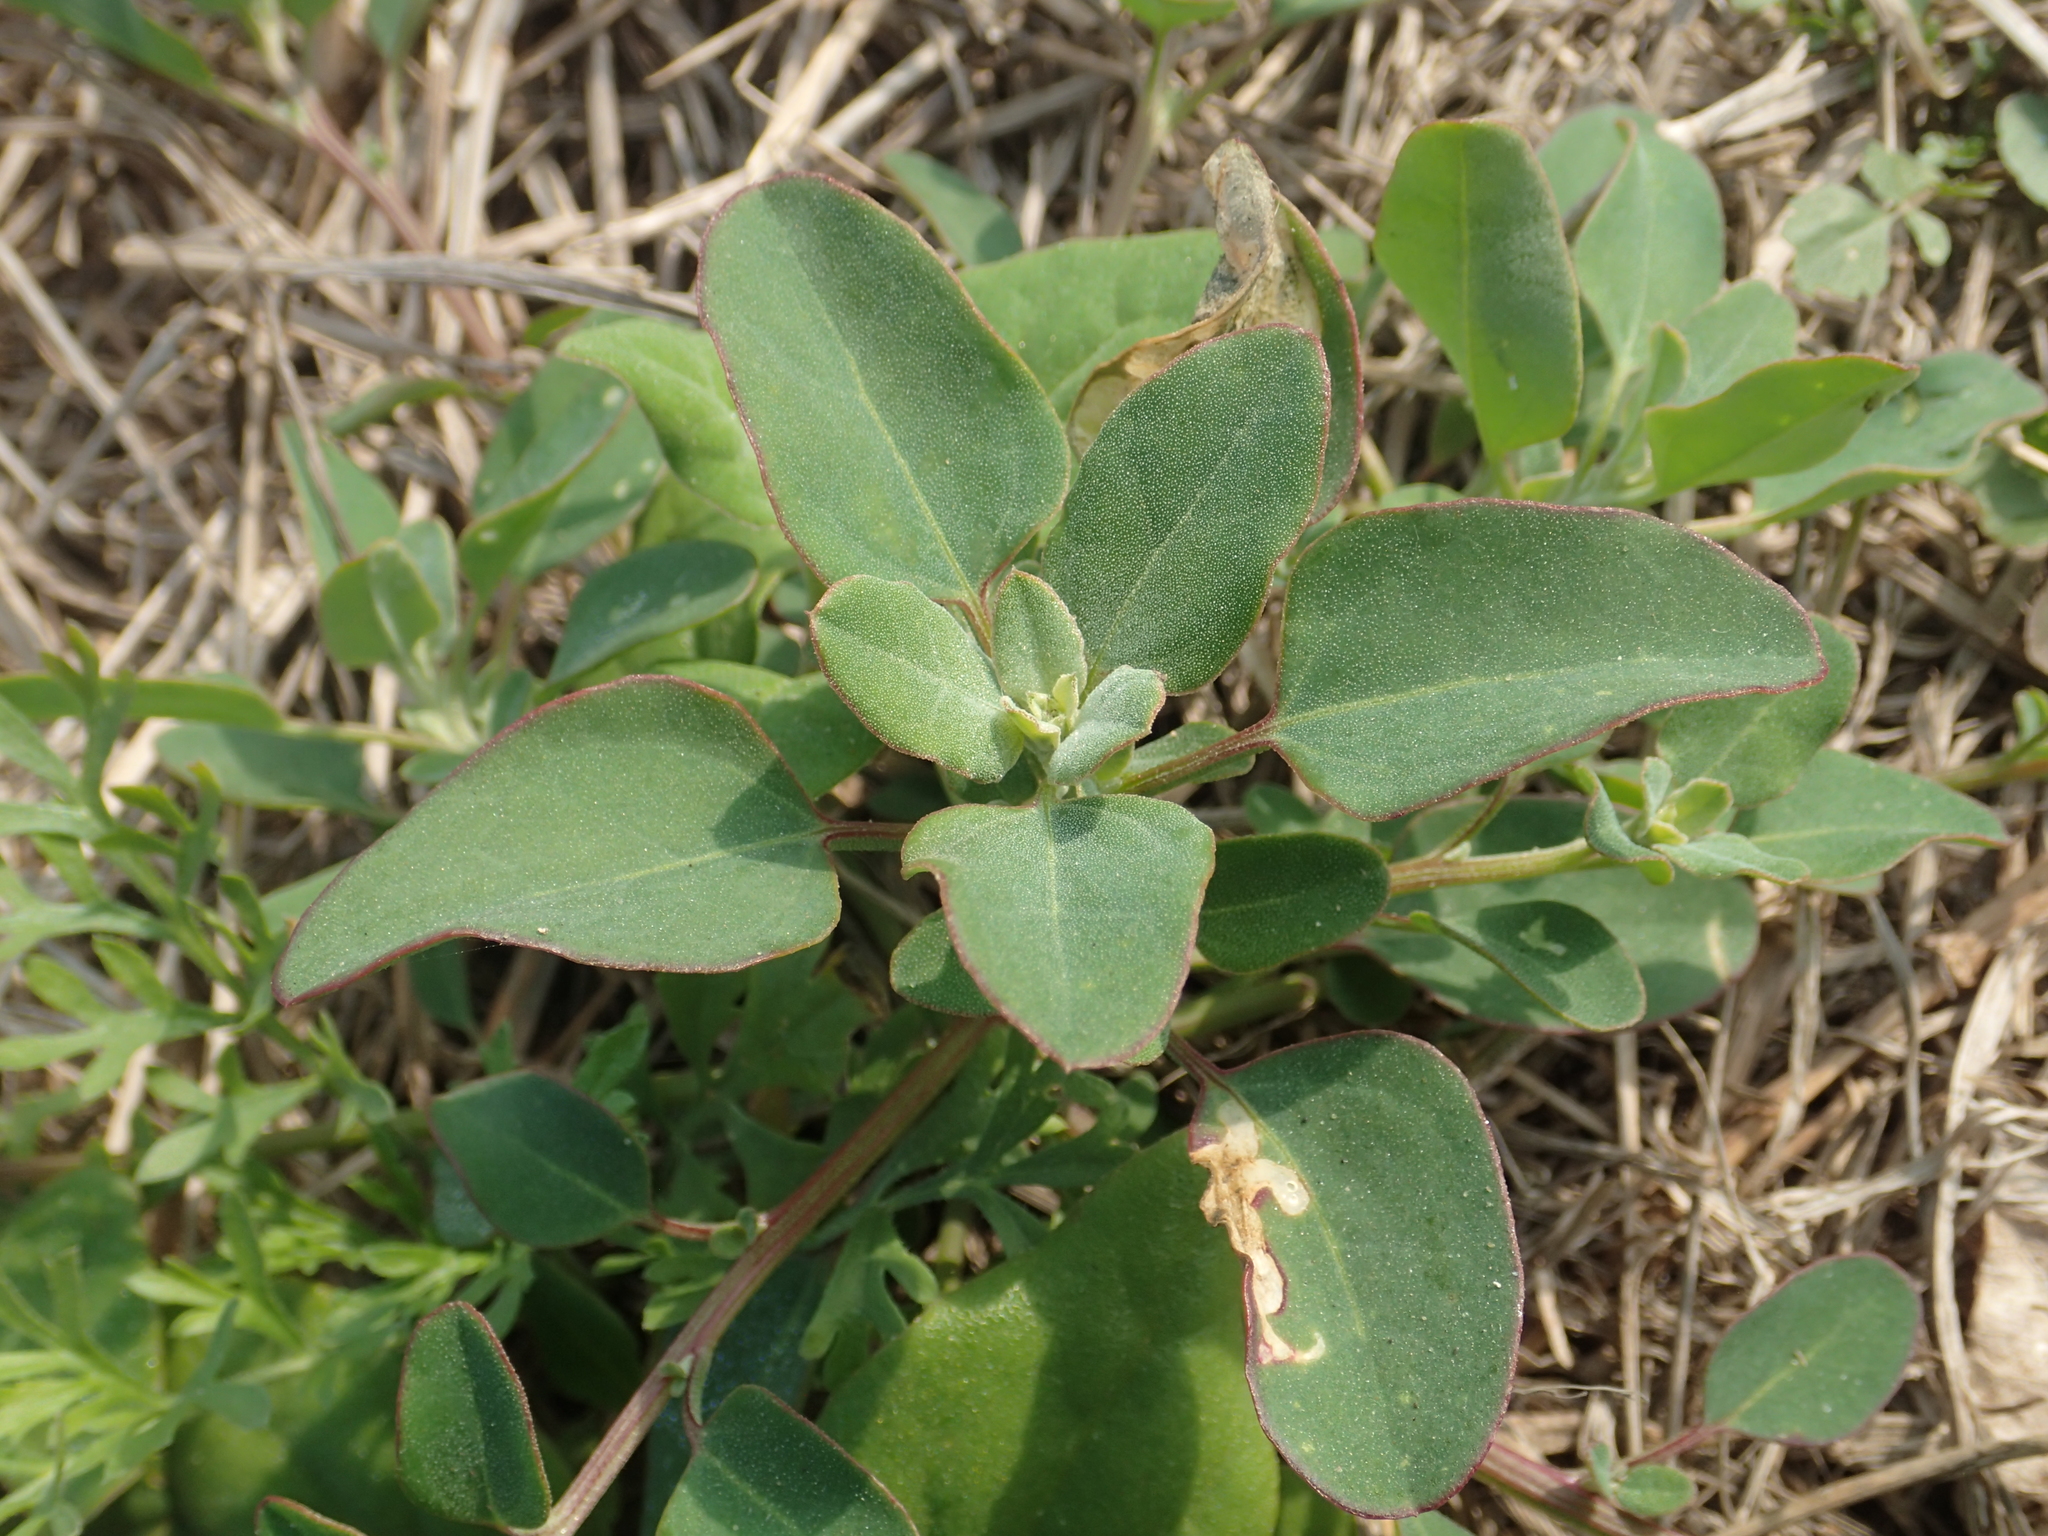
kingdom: Plantae
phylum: Tracheophyta
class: Magnoliopsida
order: Caryophyllales
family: Amaranthaceae
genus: Chenopodium
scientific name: Chenopodium acuminatum
